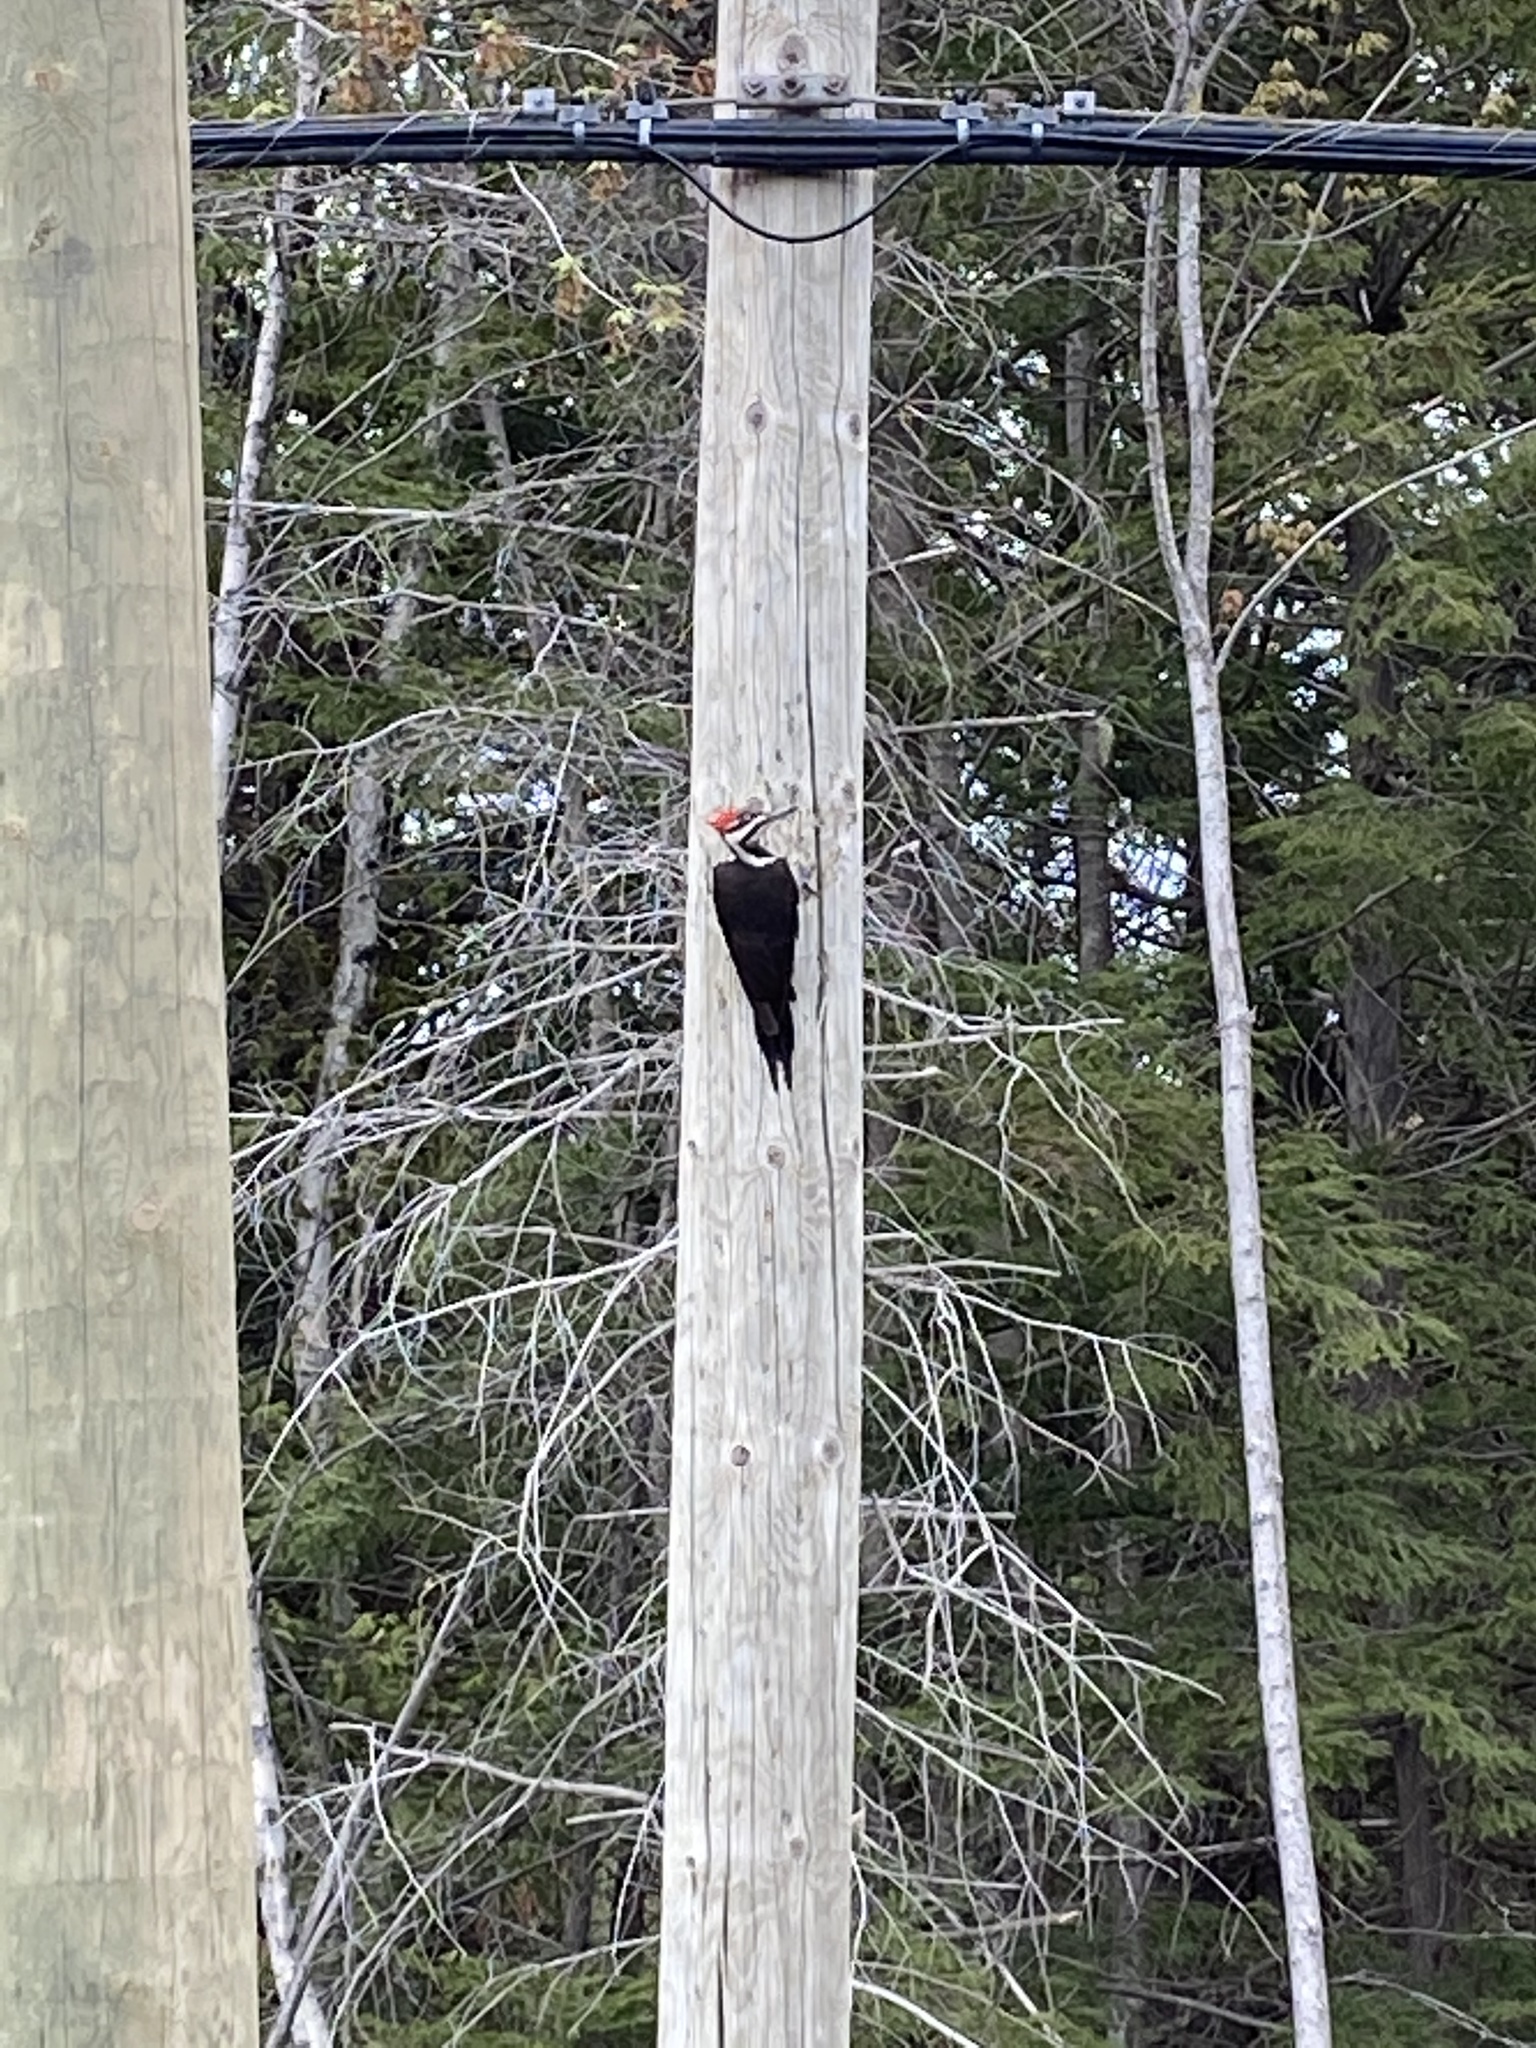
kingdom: Animalia
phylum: Chordata
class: Aves
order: Piciformes
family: Picidae
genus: Dryocopus
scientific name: Dryocopus pileatus
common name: Pileated woodpecker
